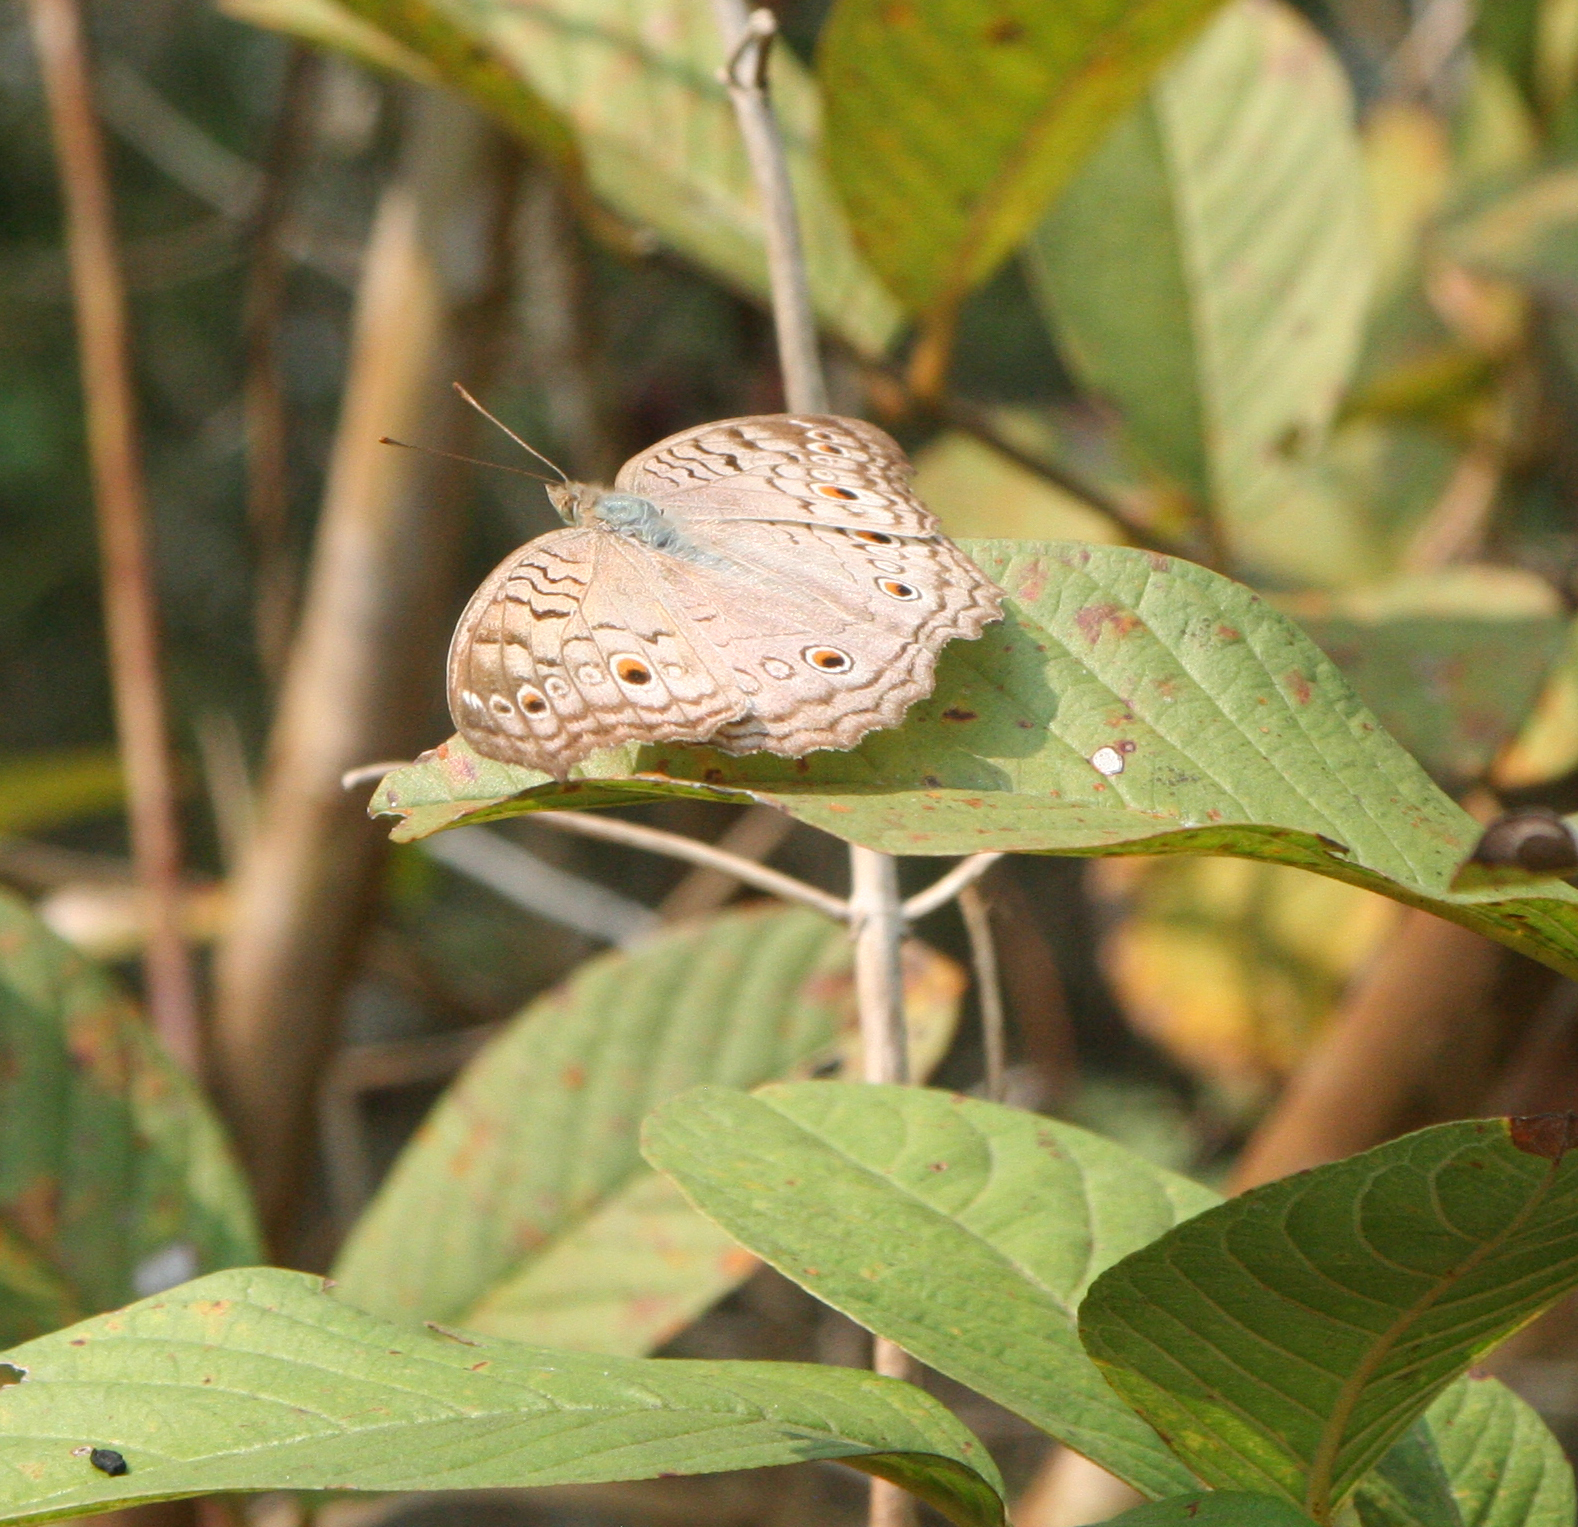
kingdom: Animalia
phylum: Arthropoda
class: Insecta
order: Lepidoptera
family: Nymphalidae
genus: Junonia
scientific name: Junonia atlites
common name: Grey pansy
